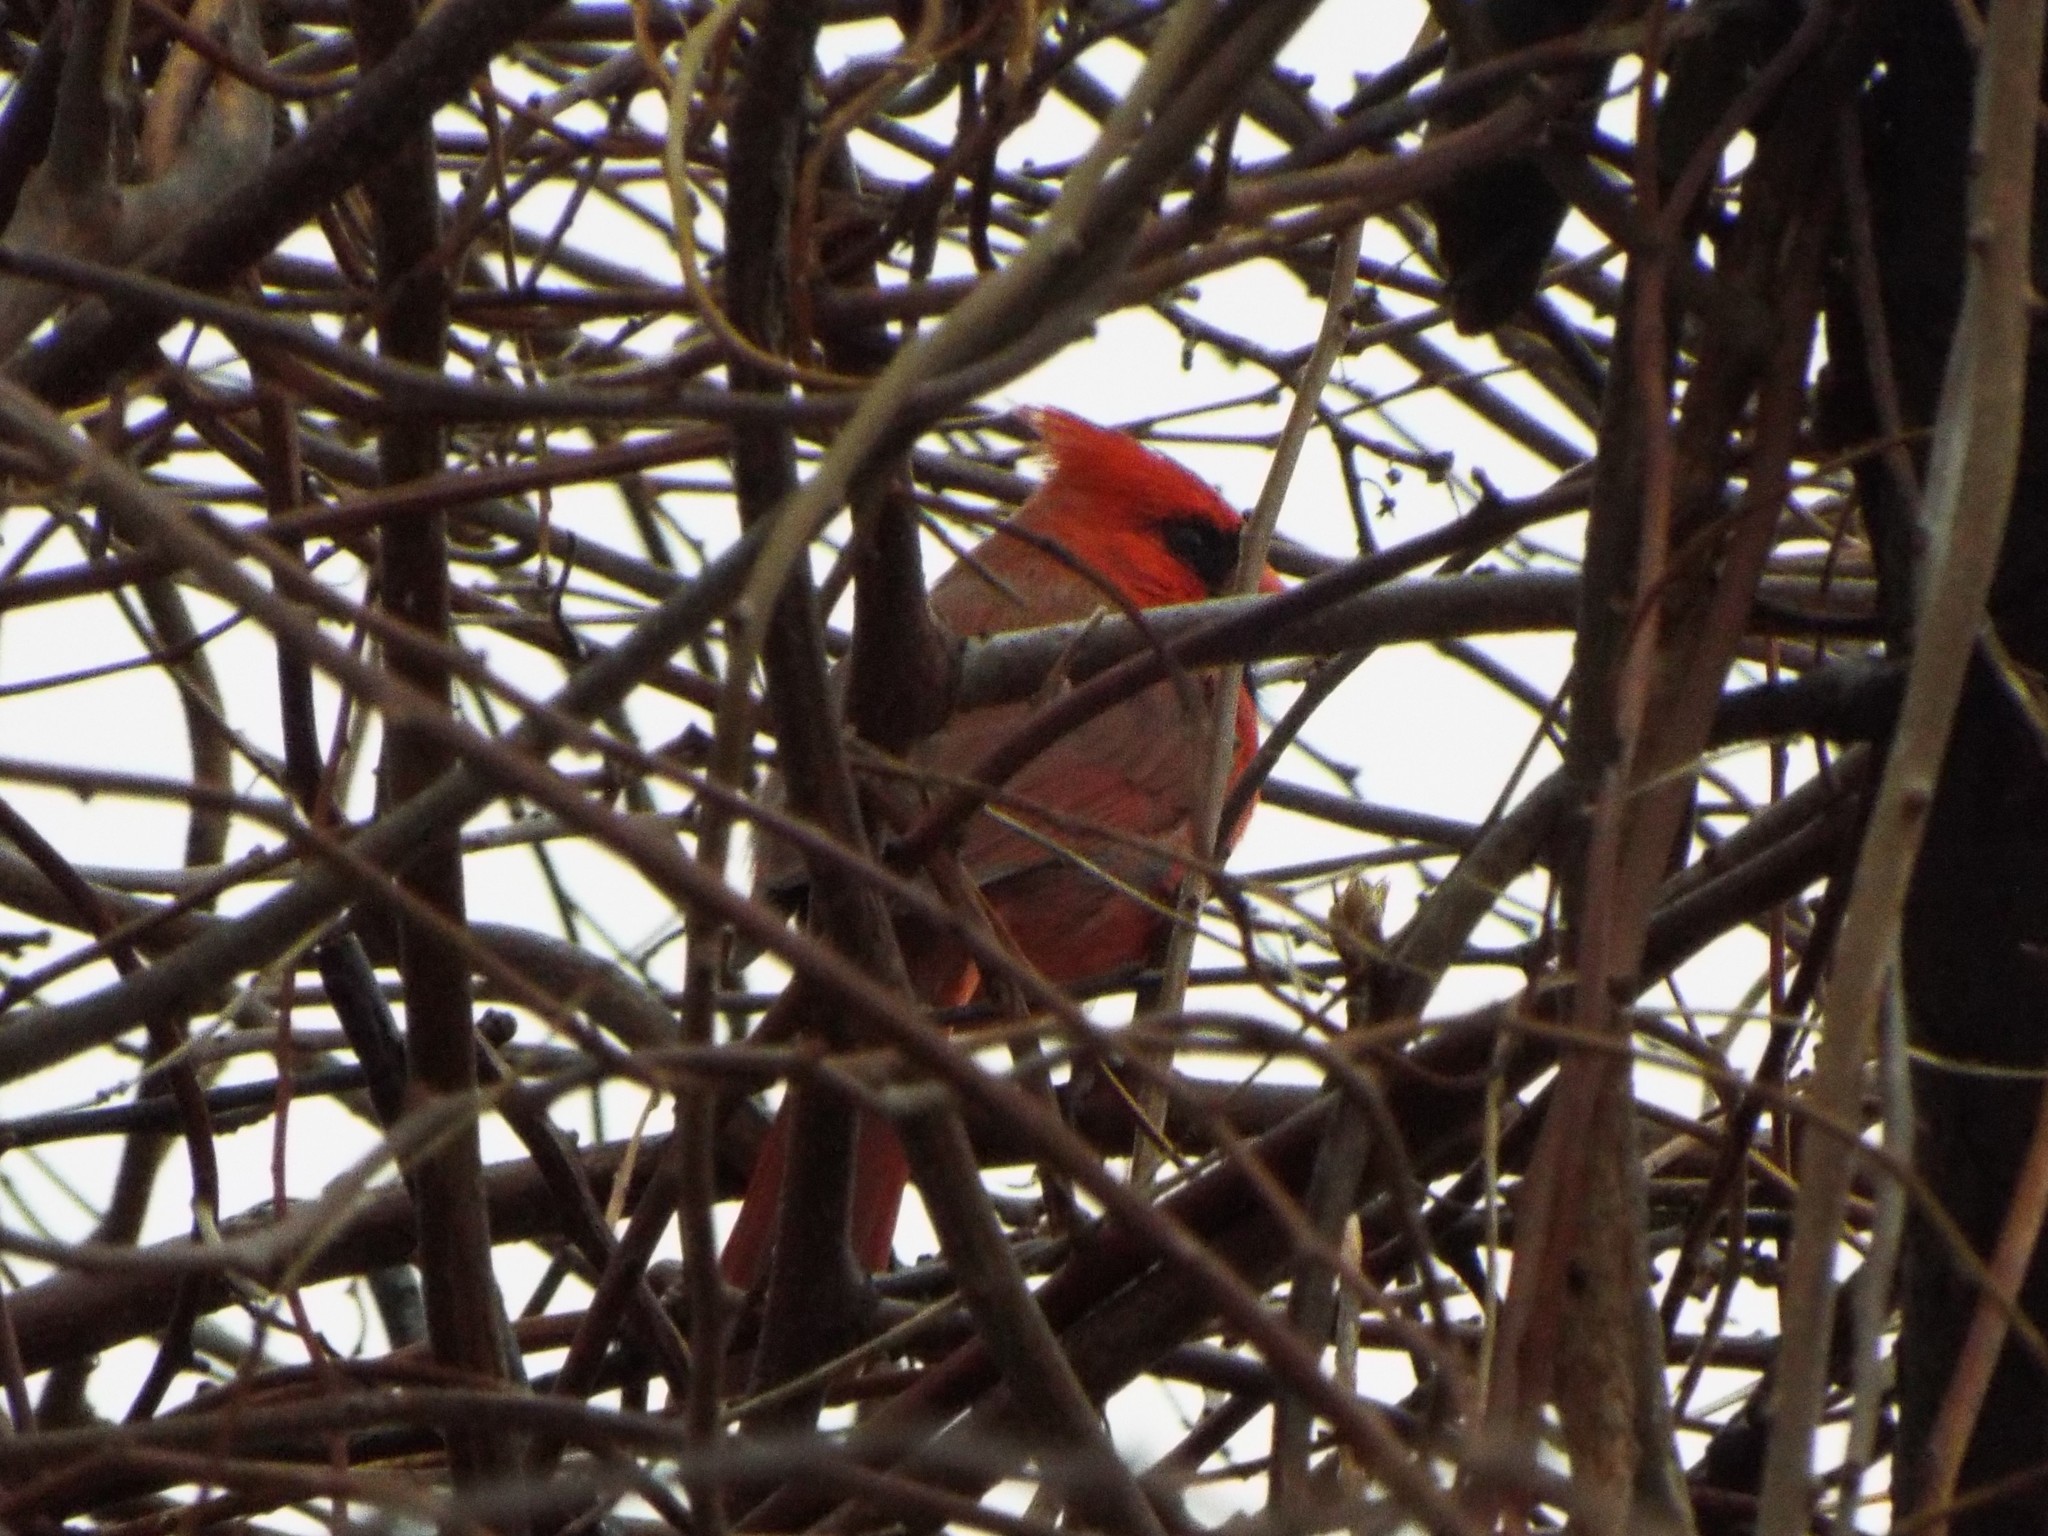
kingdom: Animalia
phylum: Chordata
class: Aves
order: Passeriformes
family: Cardinalidae
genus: Cardinalis
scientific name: Cardinalis cardinalis
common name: Northern cardinal
